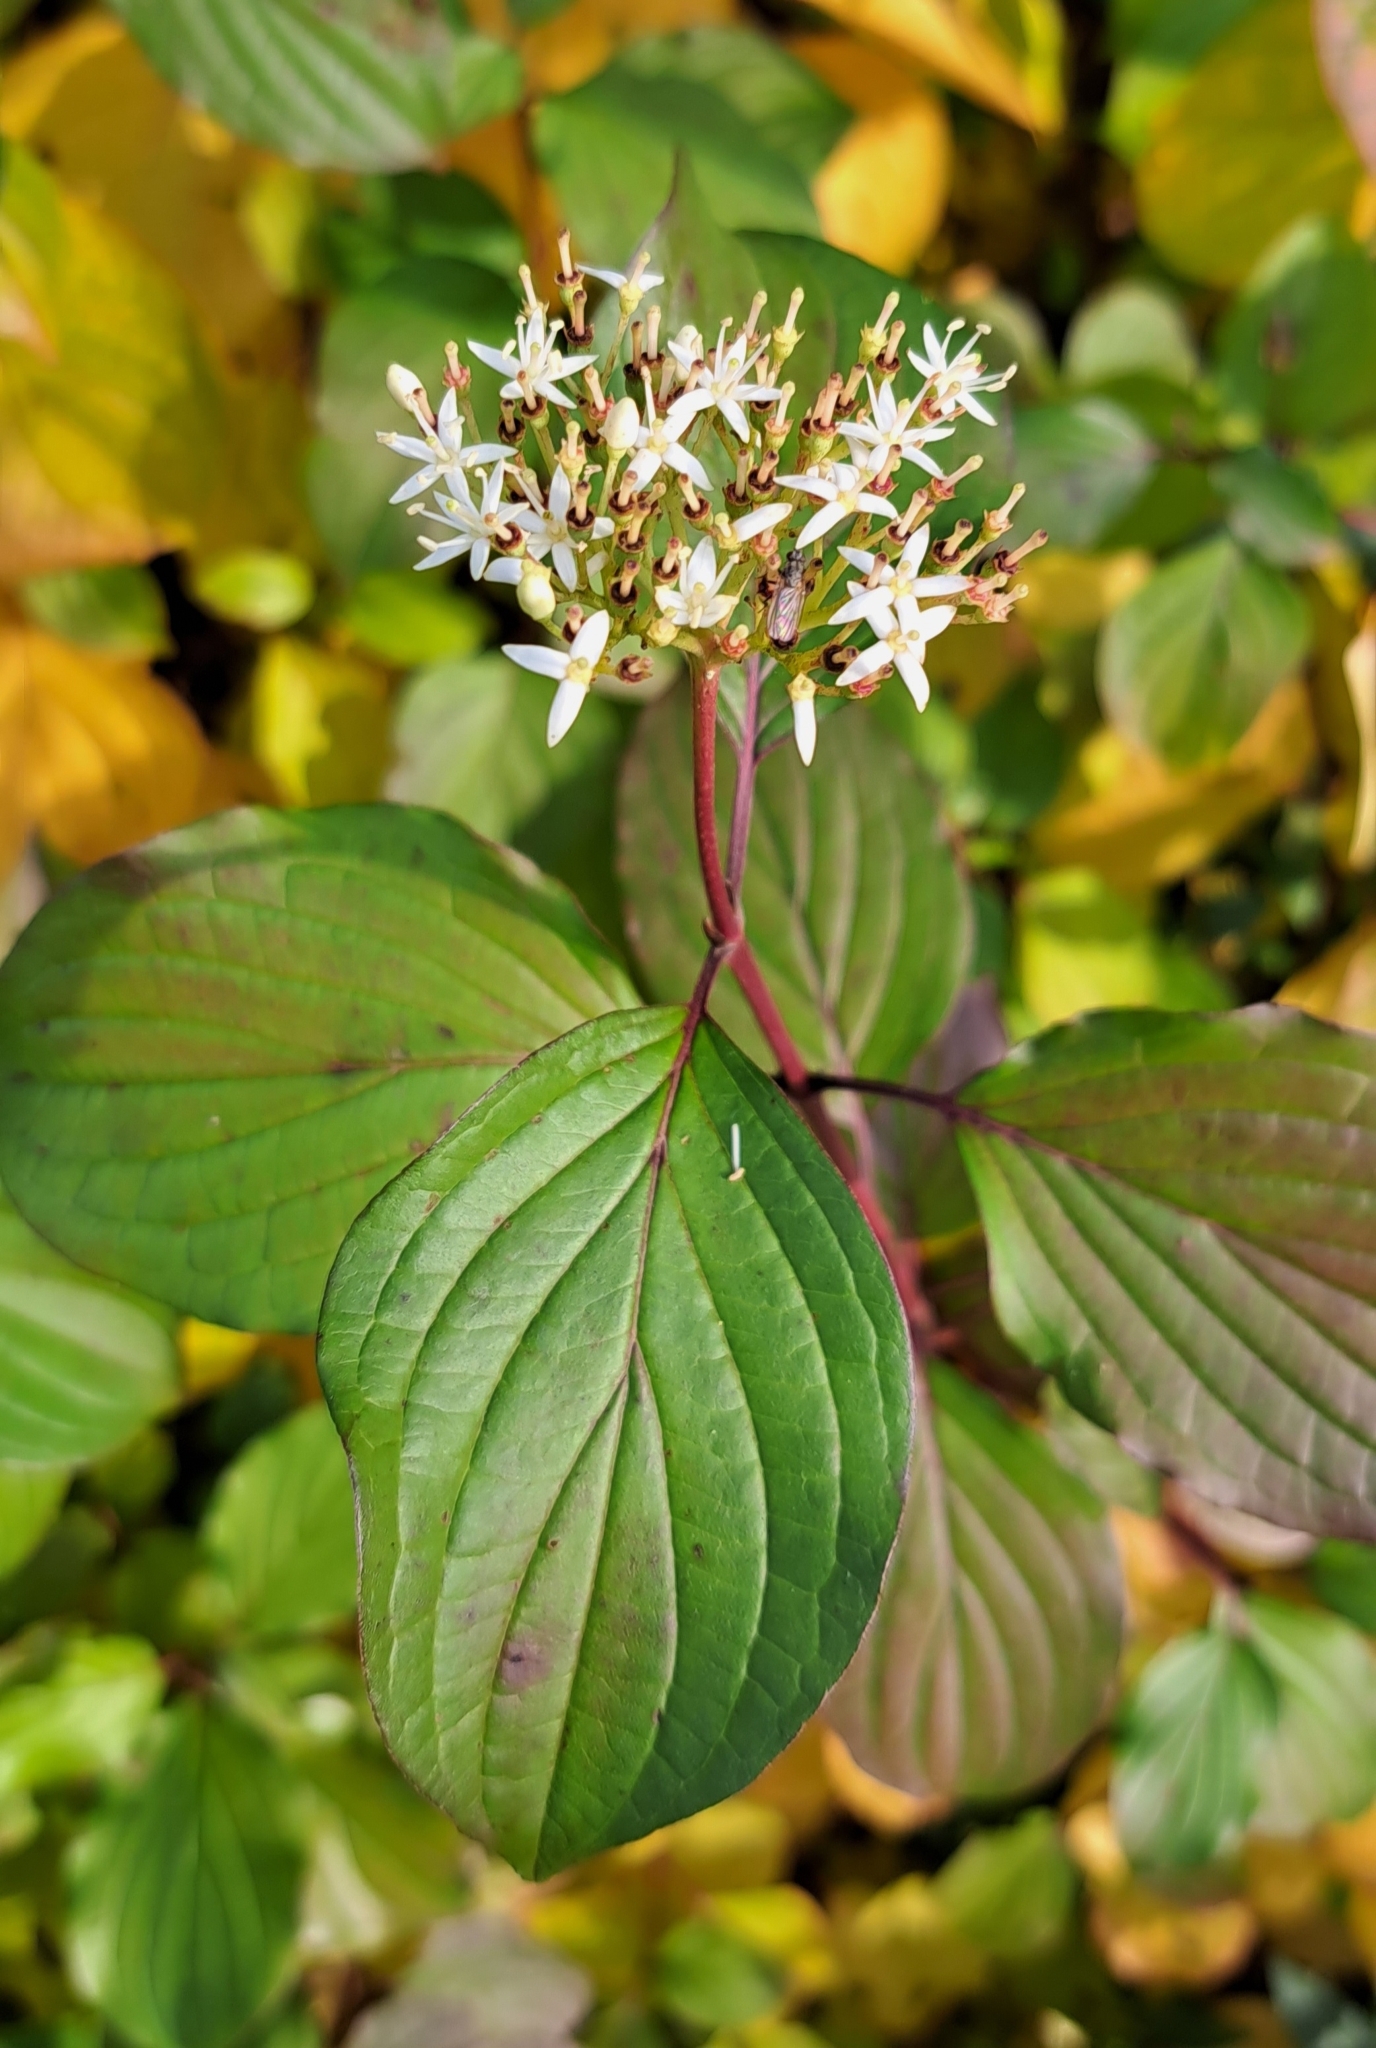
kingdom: Plantae
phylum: Tracheophyta
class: Magnoliopsida
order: Cornales
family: Cornaceae
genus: Cornus
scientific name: Cornus sanguinea
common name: Dogwood
